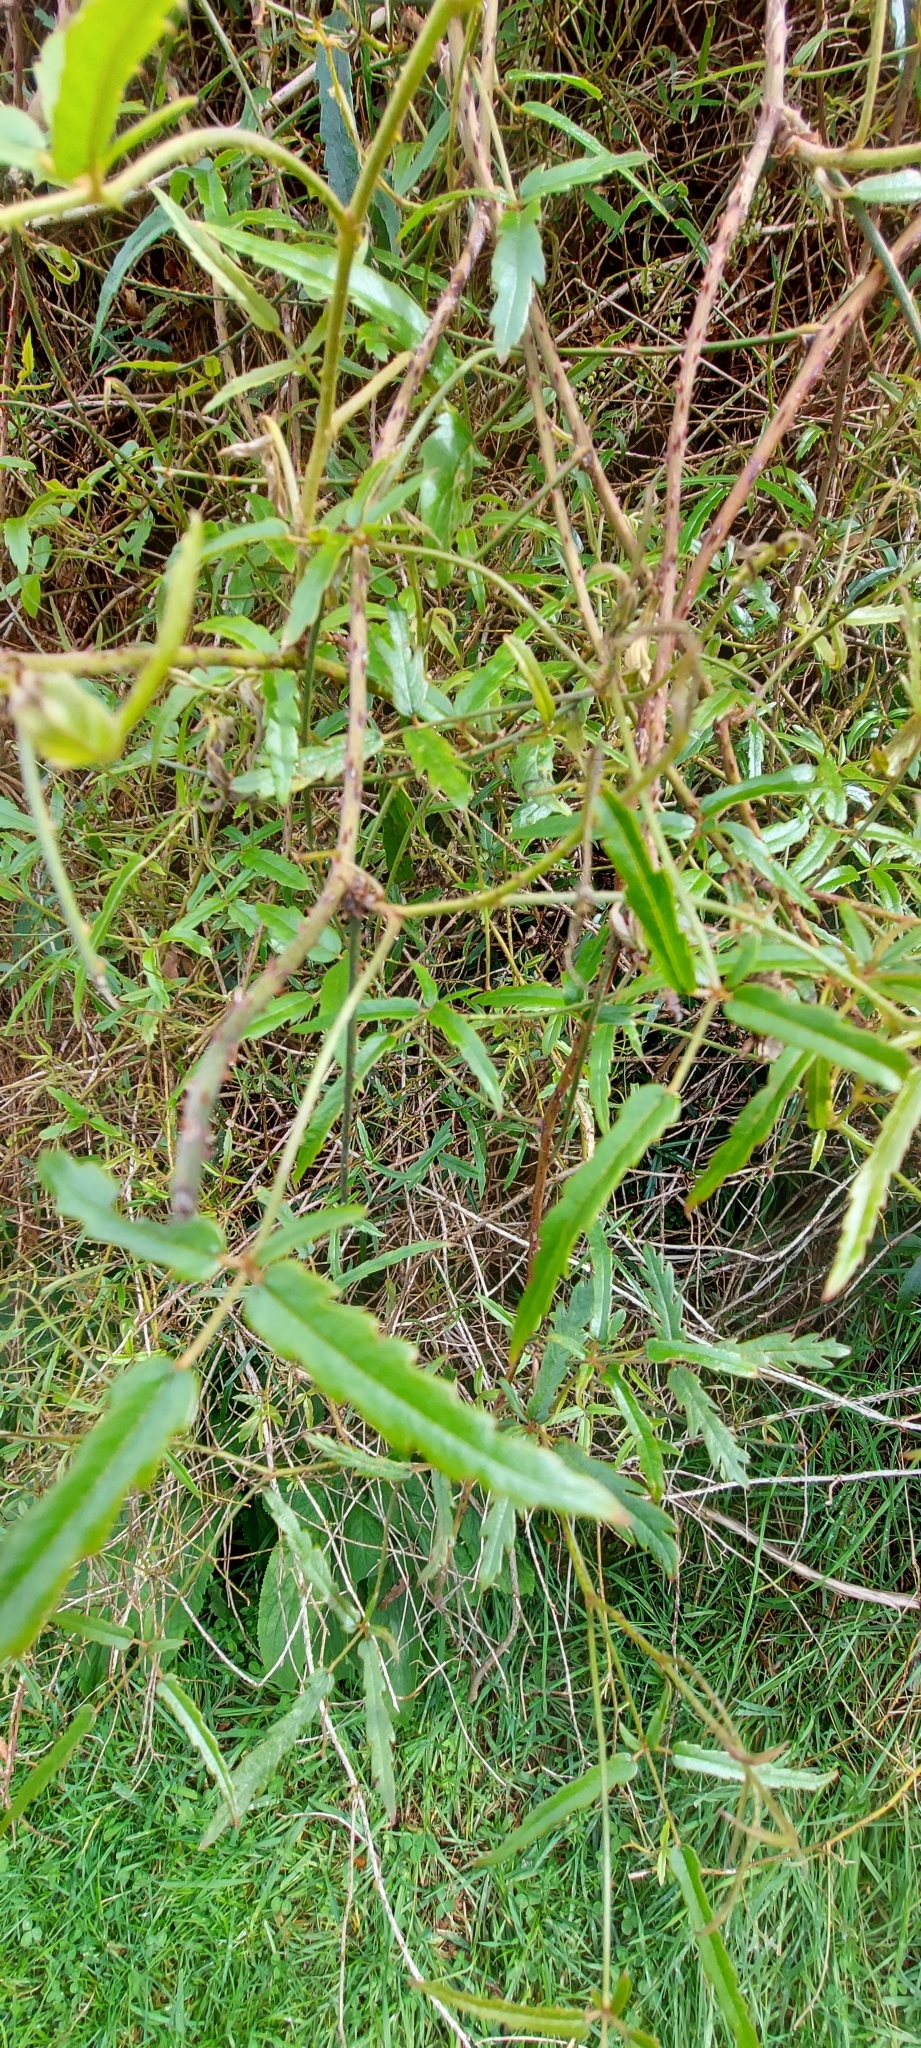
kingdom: Plantae
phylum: Tracheophyta
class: Magnoliopsida
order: Rosales
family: Rosaceae
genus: Rubus
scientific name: Rubus schmidelioides
